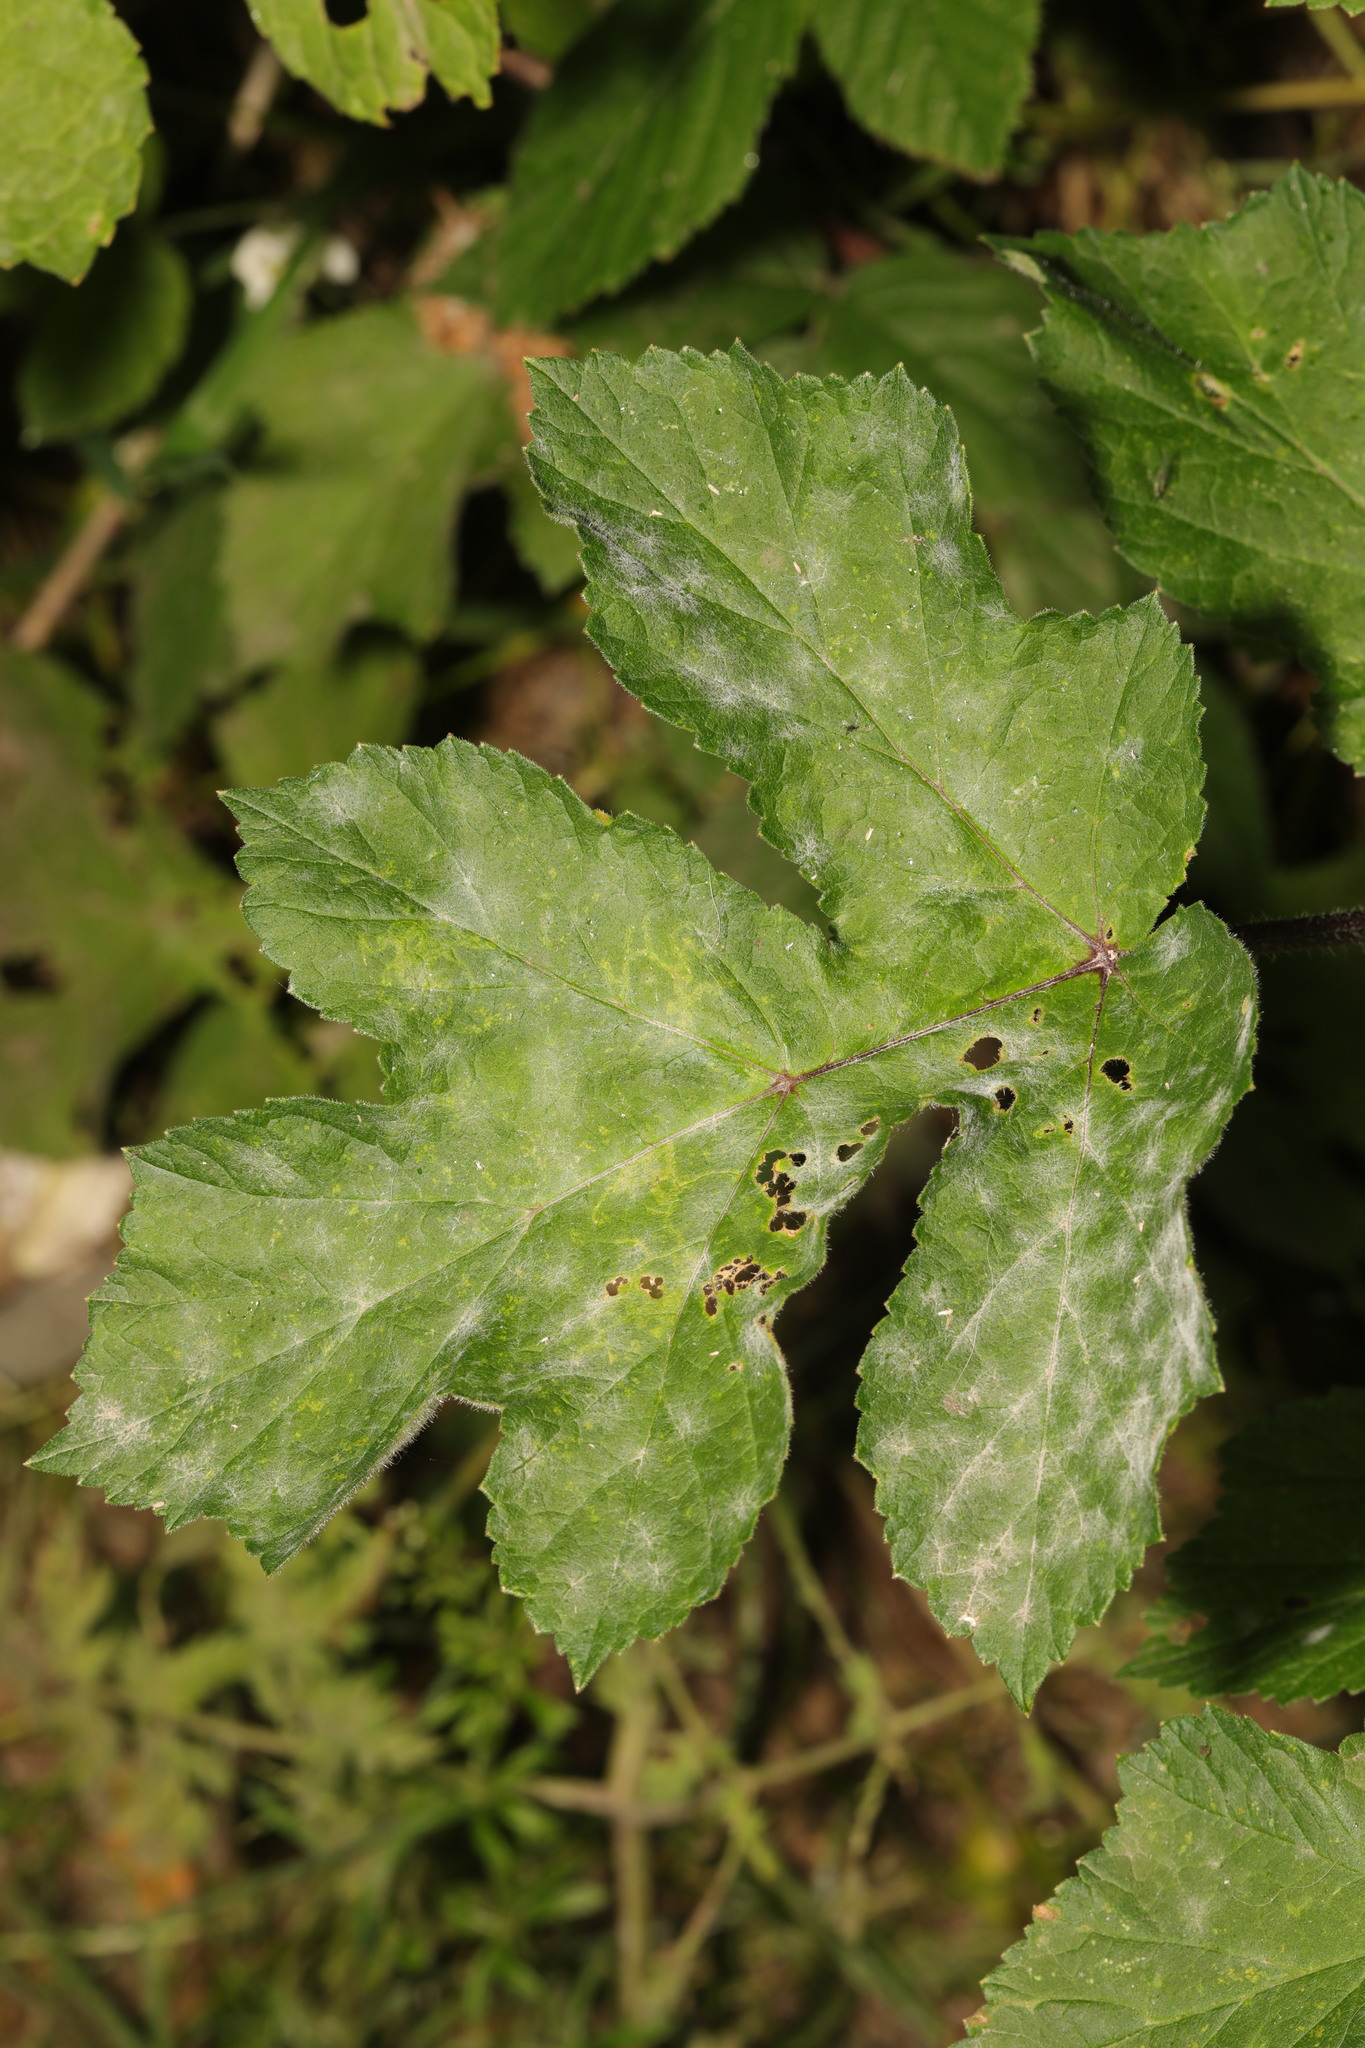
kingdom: Fungi
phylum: Ascomycota
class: Leotiomycetes
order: Helotiales
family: Erysiphaceae
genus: Erysiphe
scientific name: Erysiphe heraclei
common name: Umbellifer mildew
